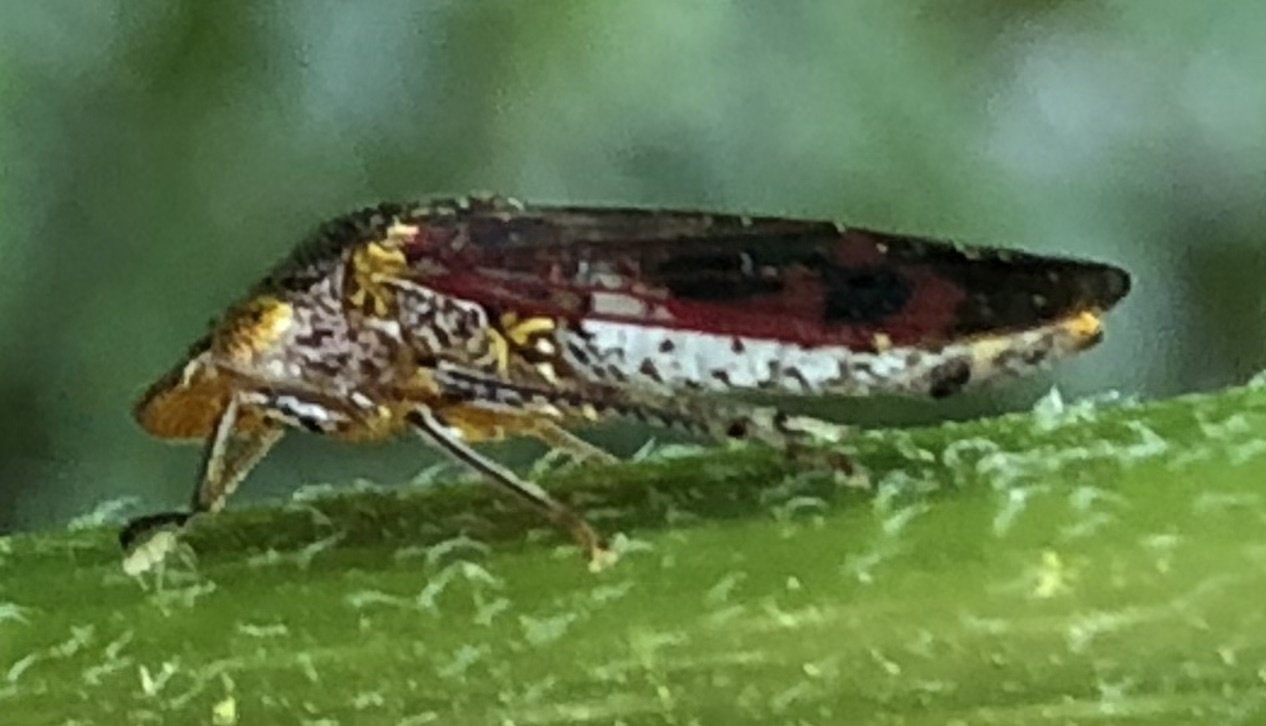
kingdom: Animalia
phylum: Arthropoda
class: Insecta
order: Hemiptera
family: Cicadellidae
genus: Homalodisca
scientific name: Homalodisca vitripennis
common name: Glassy-winged sharpshooter
